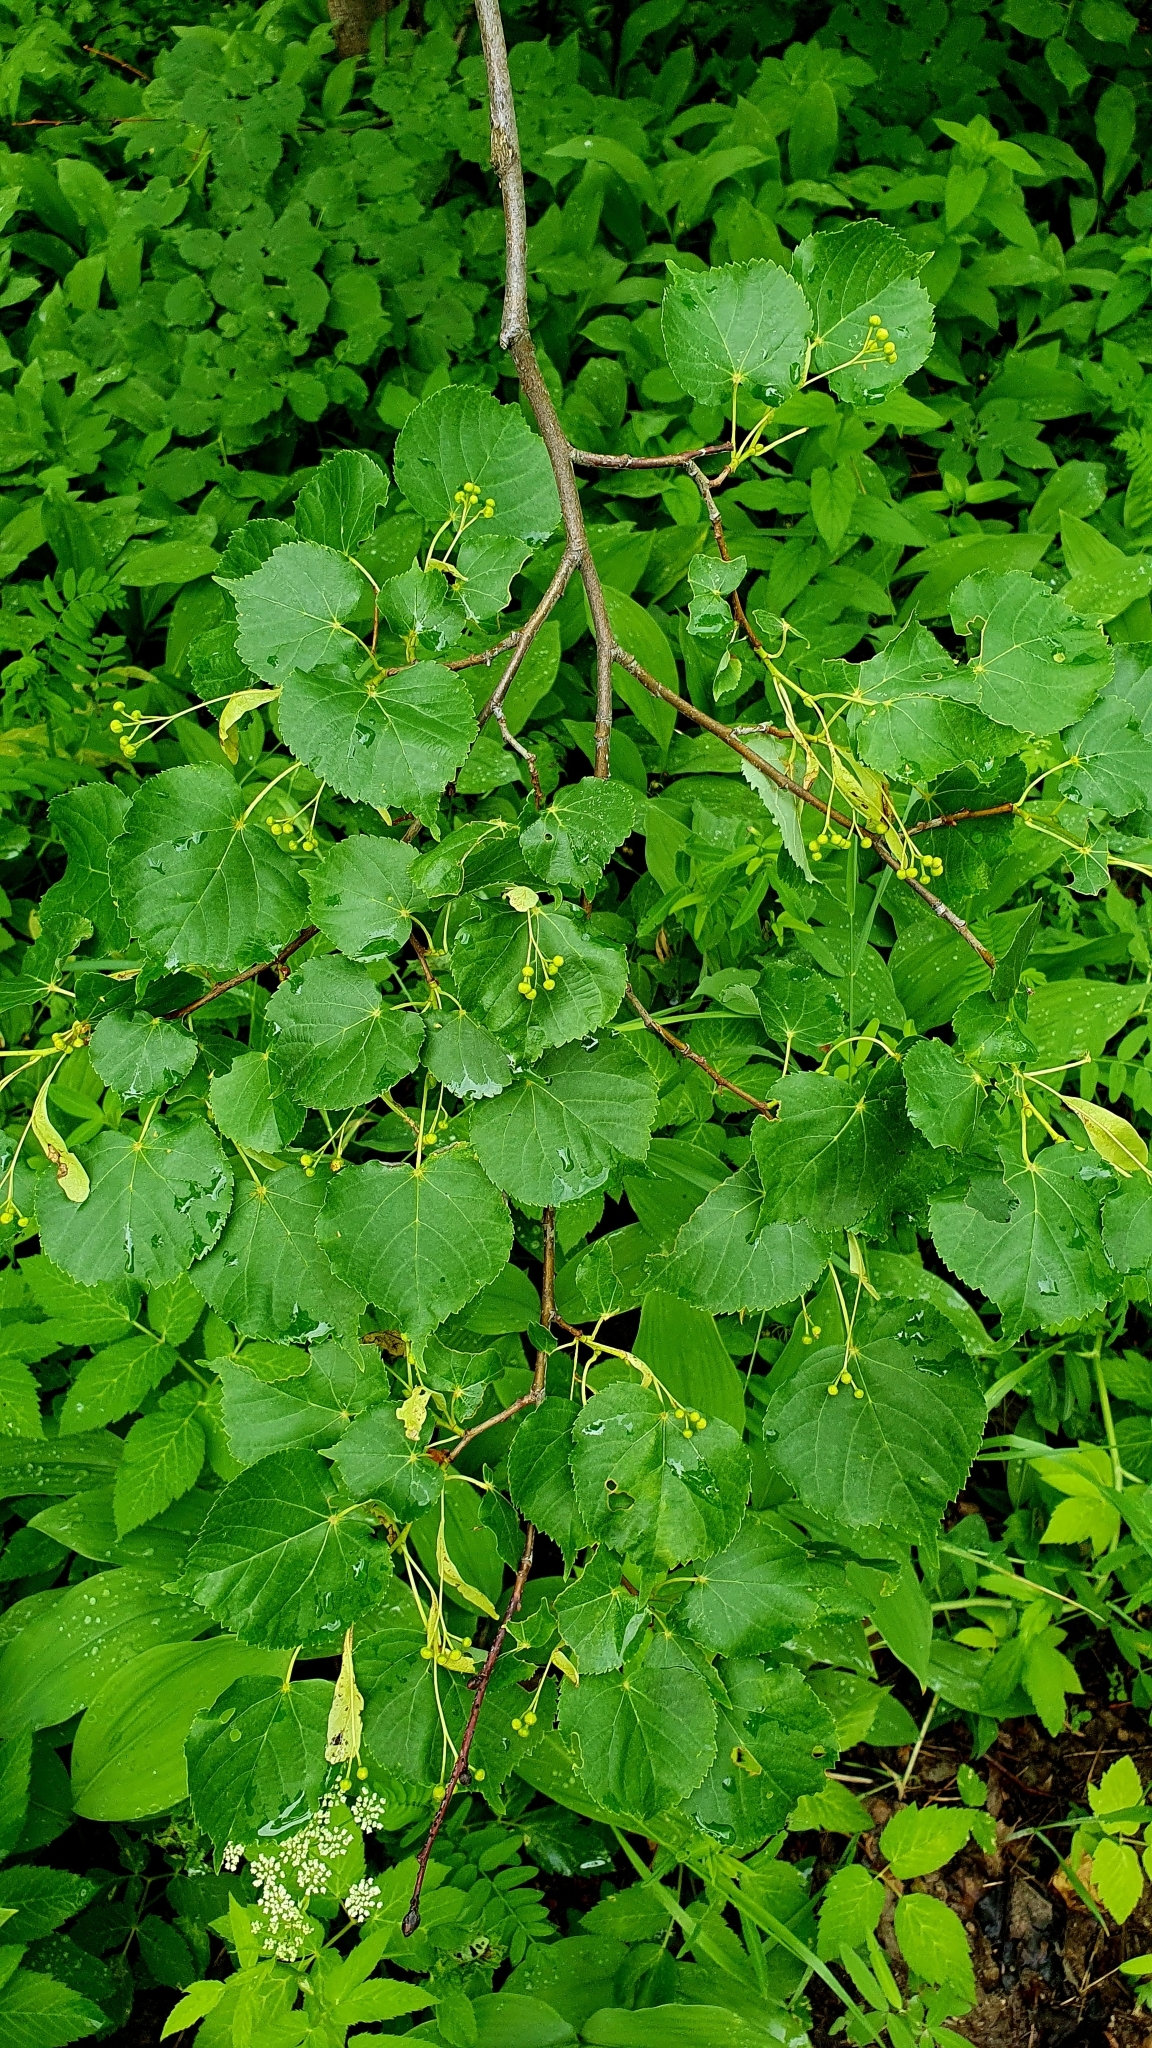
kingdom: Plantae
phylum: Tracheophyta
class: Magnoliopsida
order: Malvales
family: Malvaceae
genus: Tilia
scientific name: Tilia cordata
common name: Small-leaved lime
